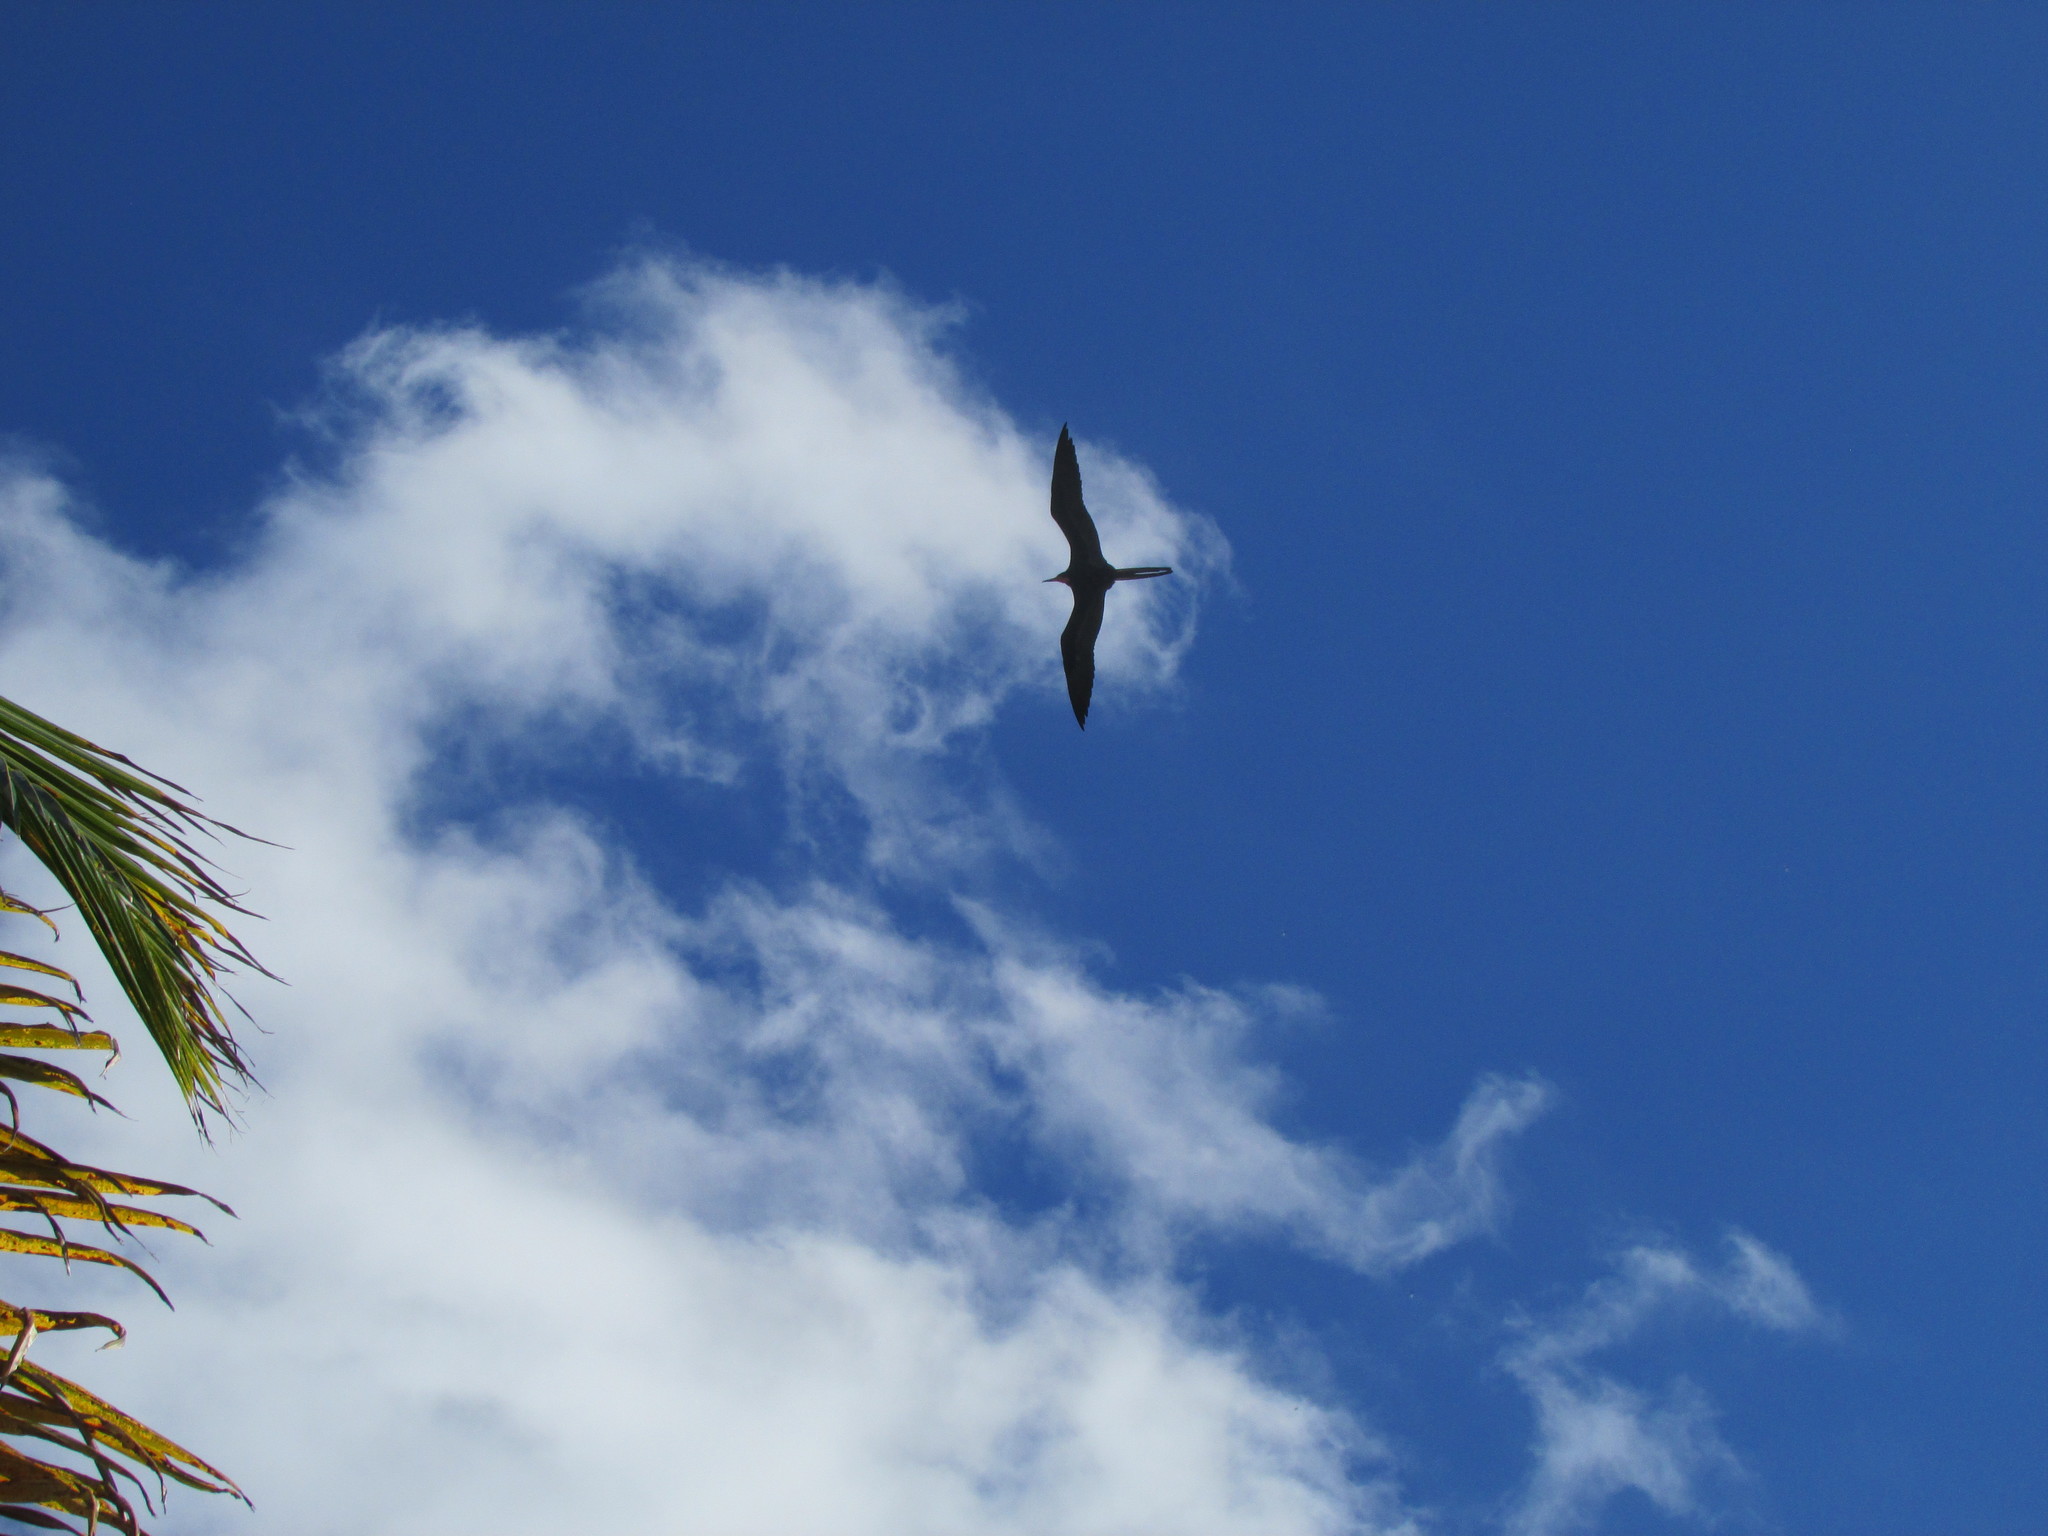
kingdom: Animalia
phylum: Chordata
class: Aves
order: Suliformes
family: Fregatidae
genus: Fregata
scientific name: Fregata magnificens
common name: Magnificent frigatebird
